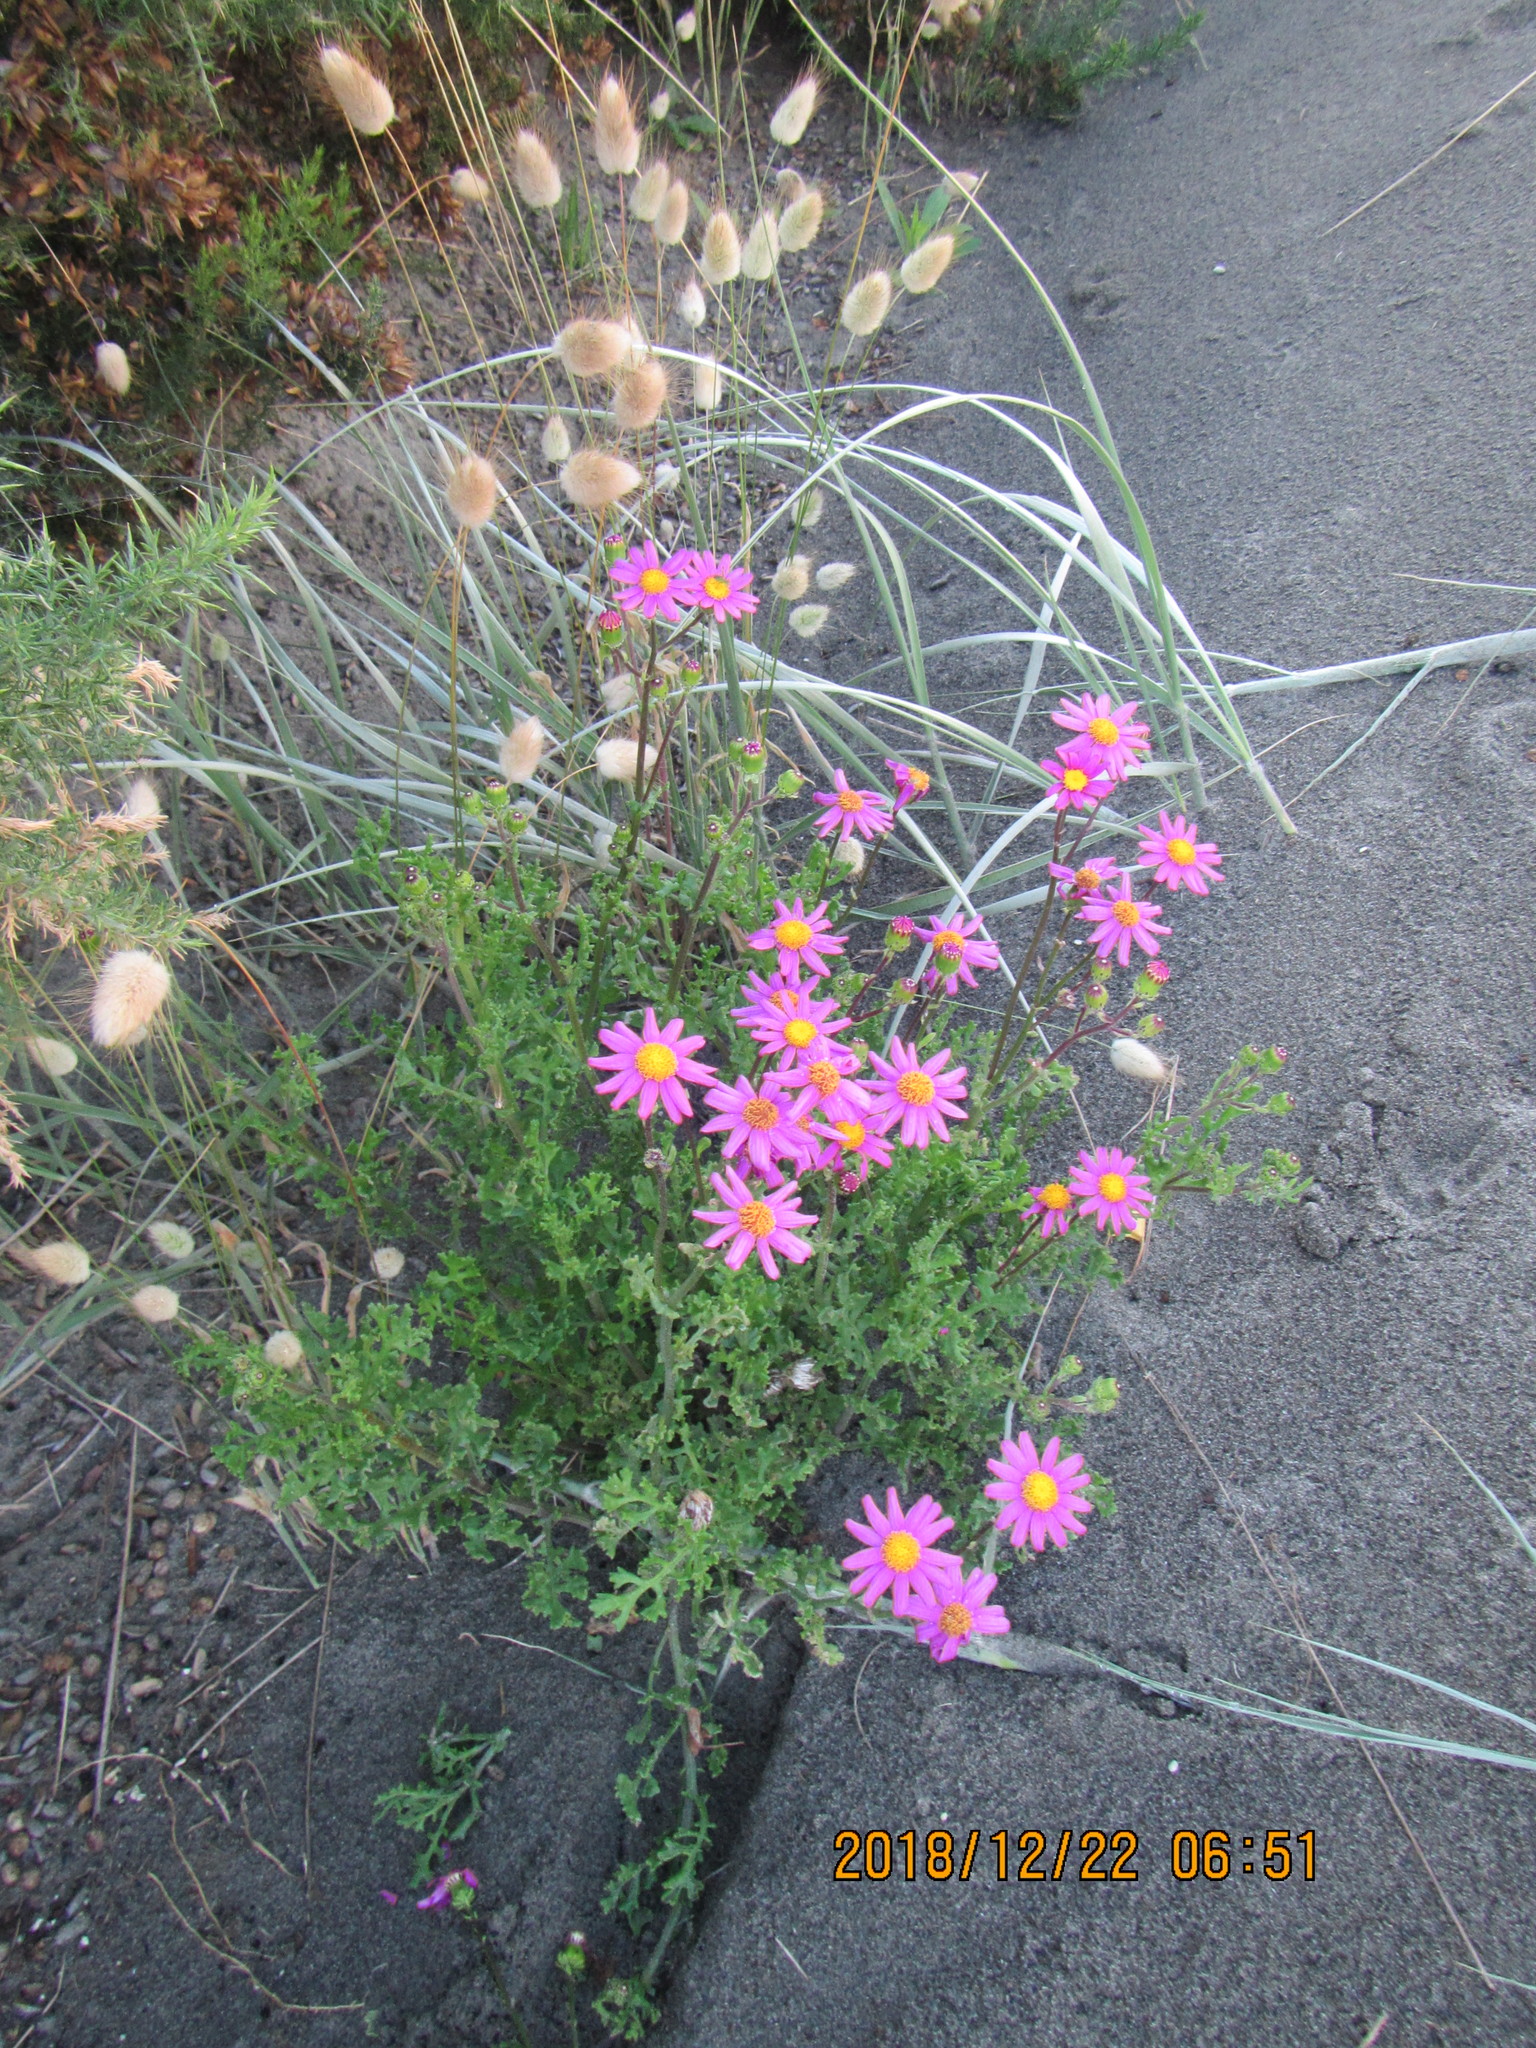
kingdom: Plantae
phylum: Tracheophyta
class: Magnoliopsida
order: Asterales
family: Asteraceae
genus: Senecio
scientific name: Senecio elegans
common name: Purple groundsel
